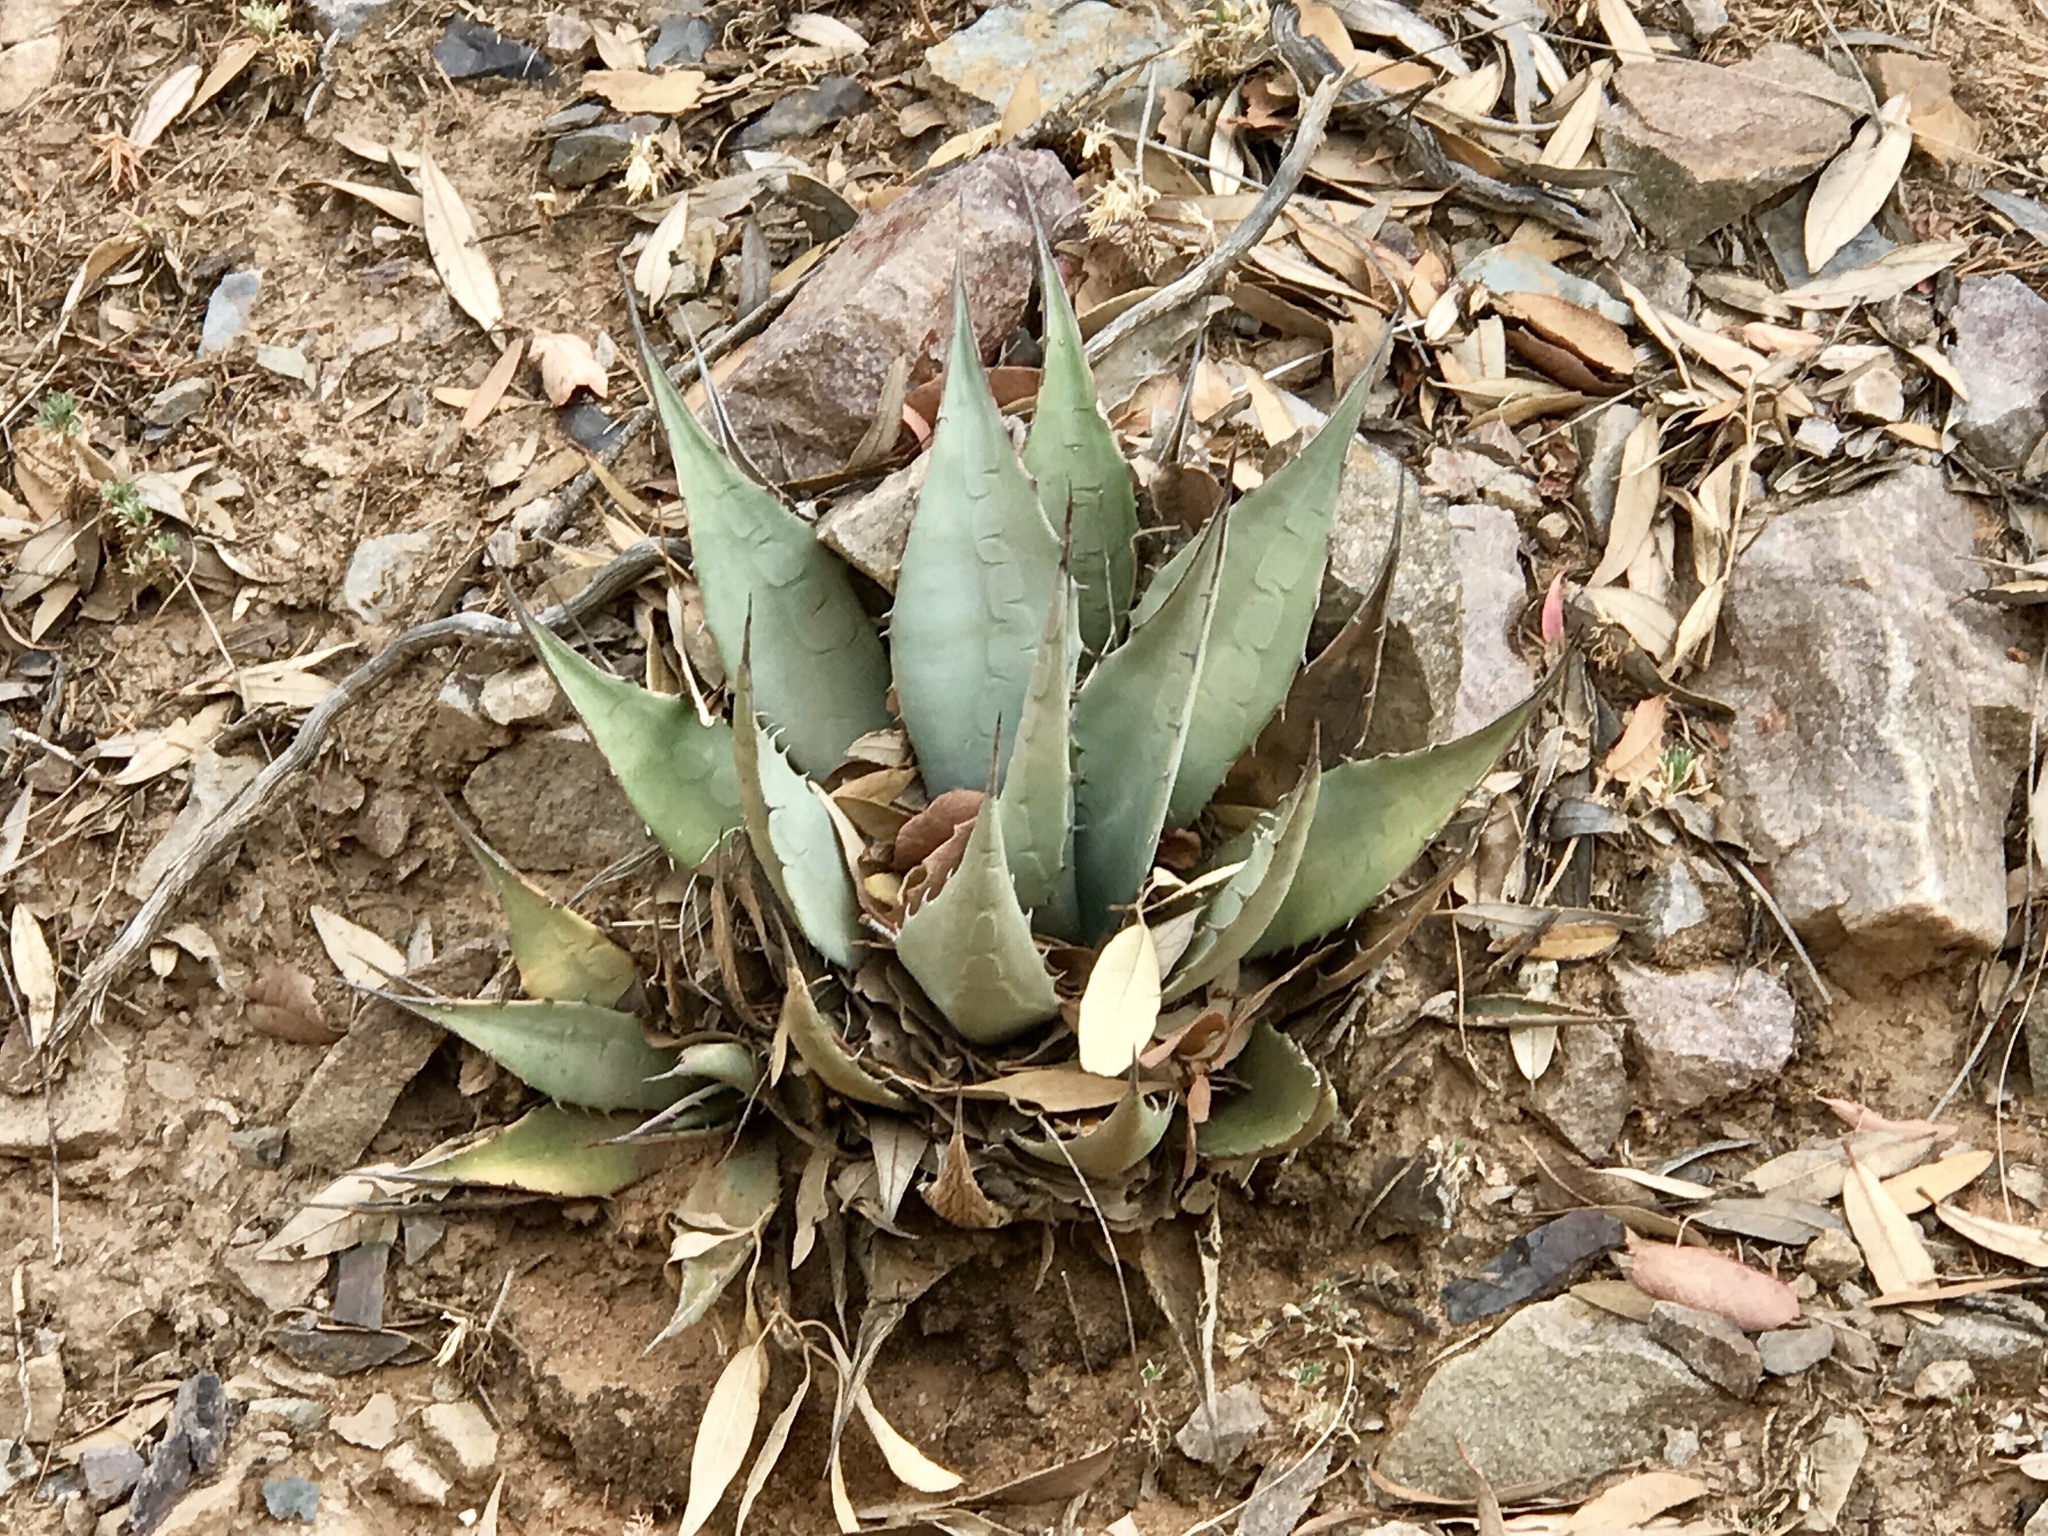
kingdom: Plantae
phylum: Tracheophyta
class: Liliopsida
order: Asparagales
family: Asparagaceae
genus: Agave
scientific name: Agave parryi
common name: Parry's agave
